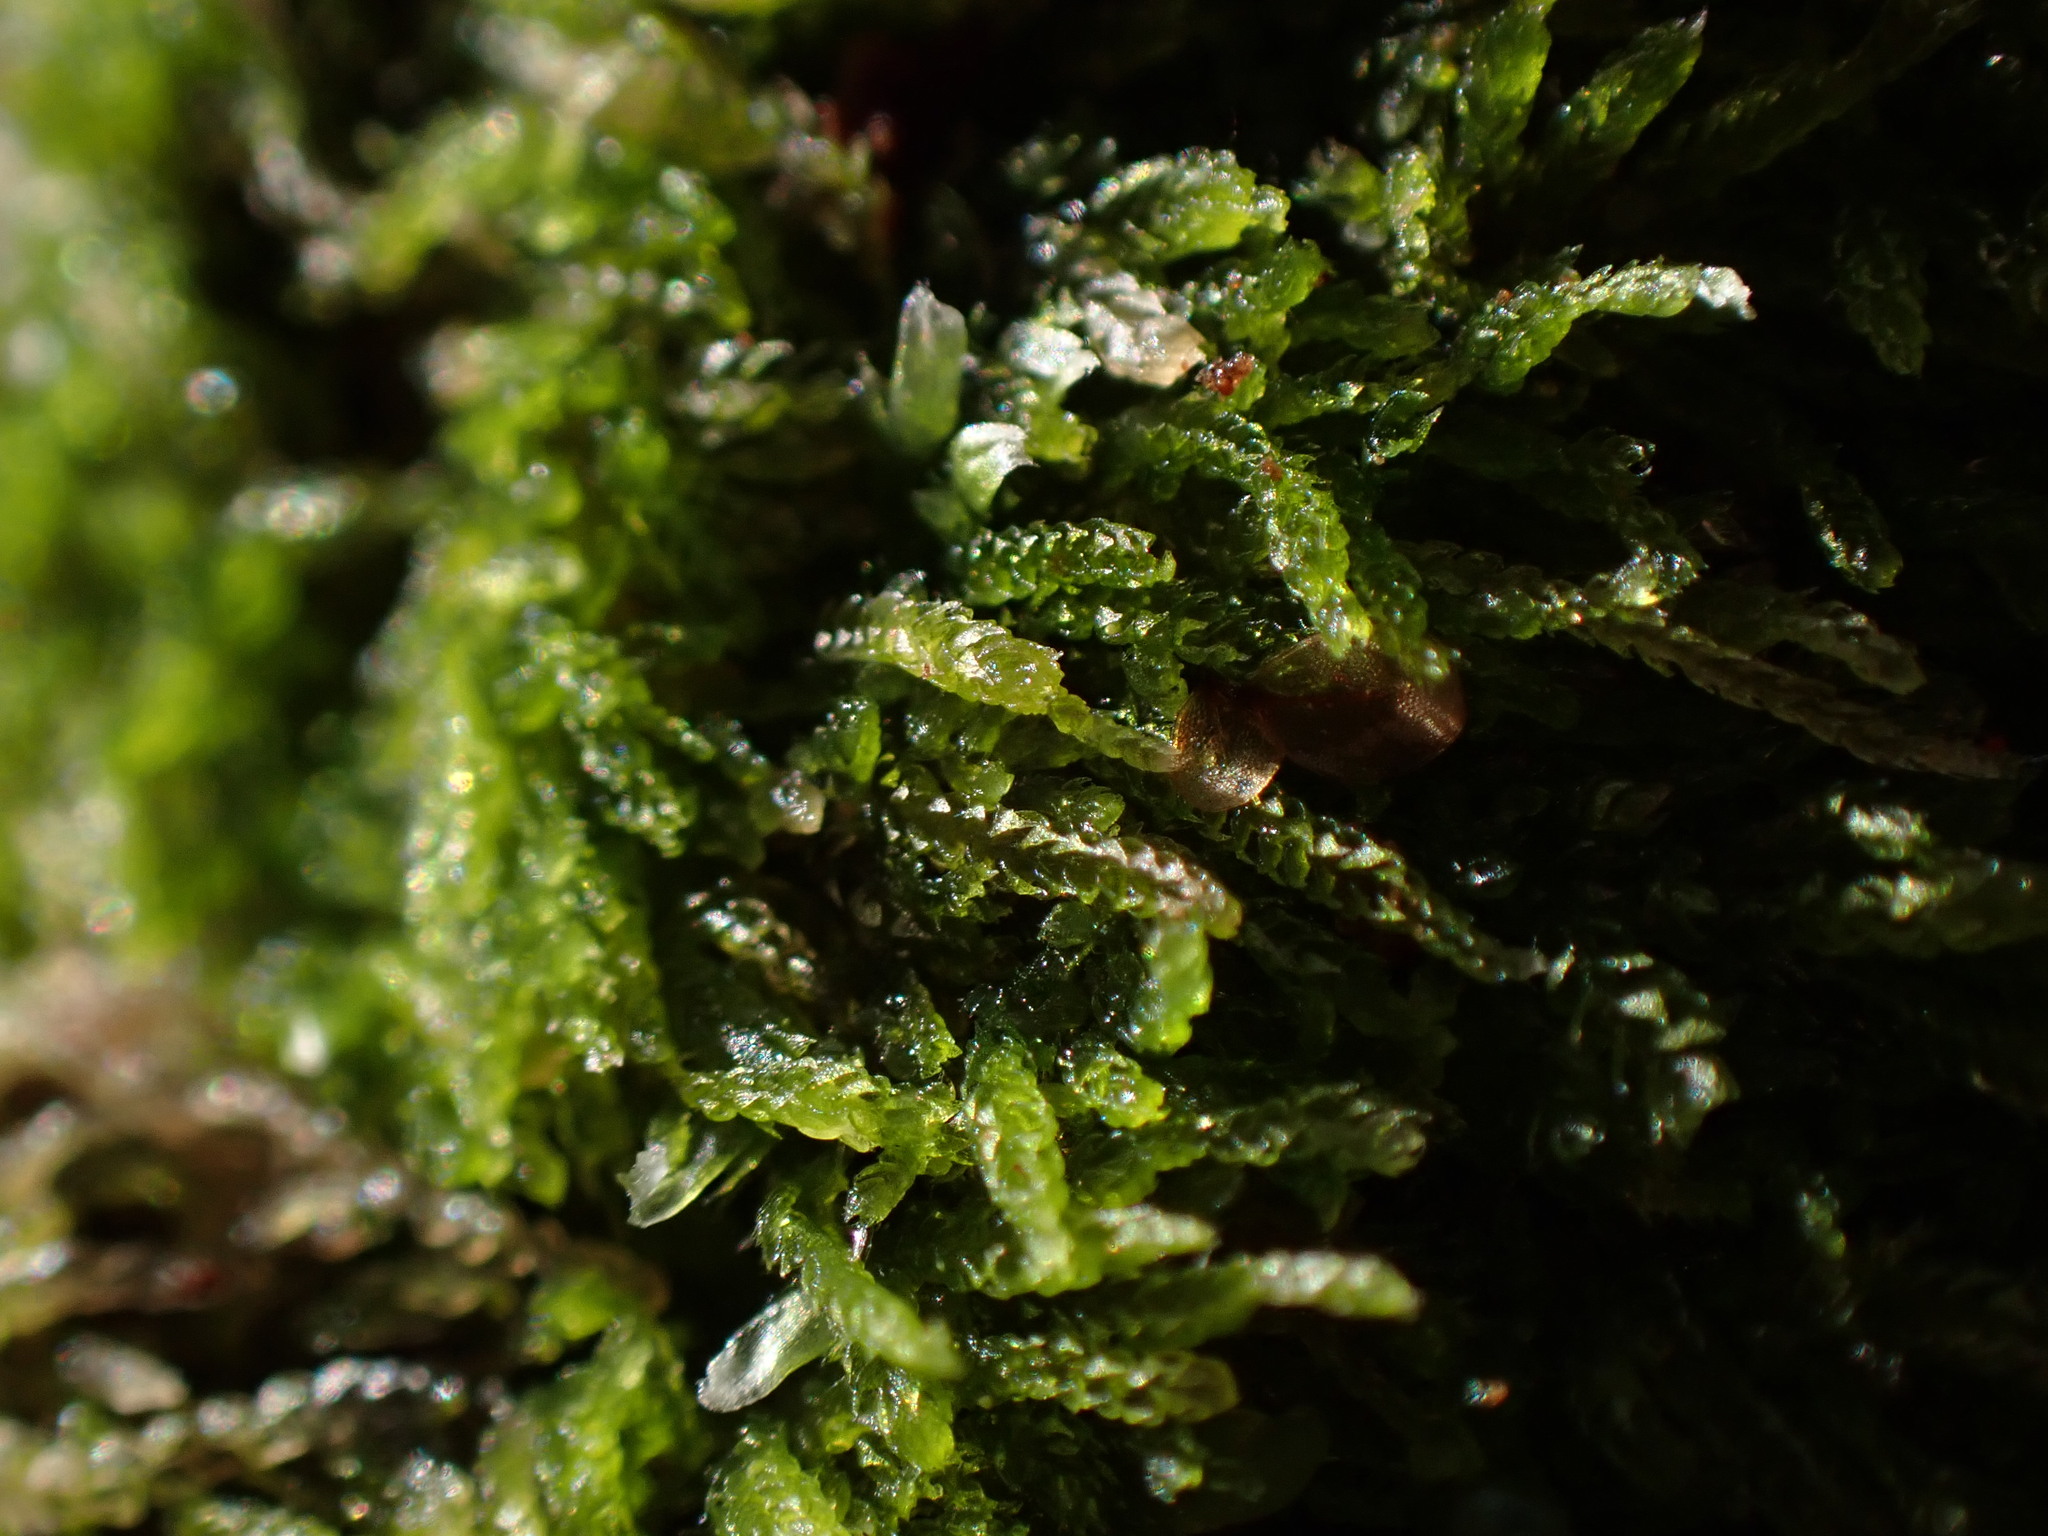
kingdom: Plantae
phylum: Marchantiophyta
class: Jungermanniopsida
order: Jungermanniales
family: Cephaloziaceae
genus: Cephalozia
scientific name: Cephalozia bicuspidata
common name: Two-horned pincerwort
